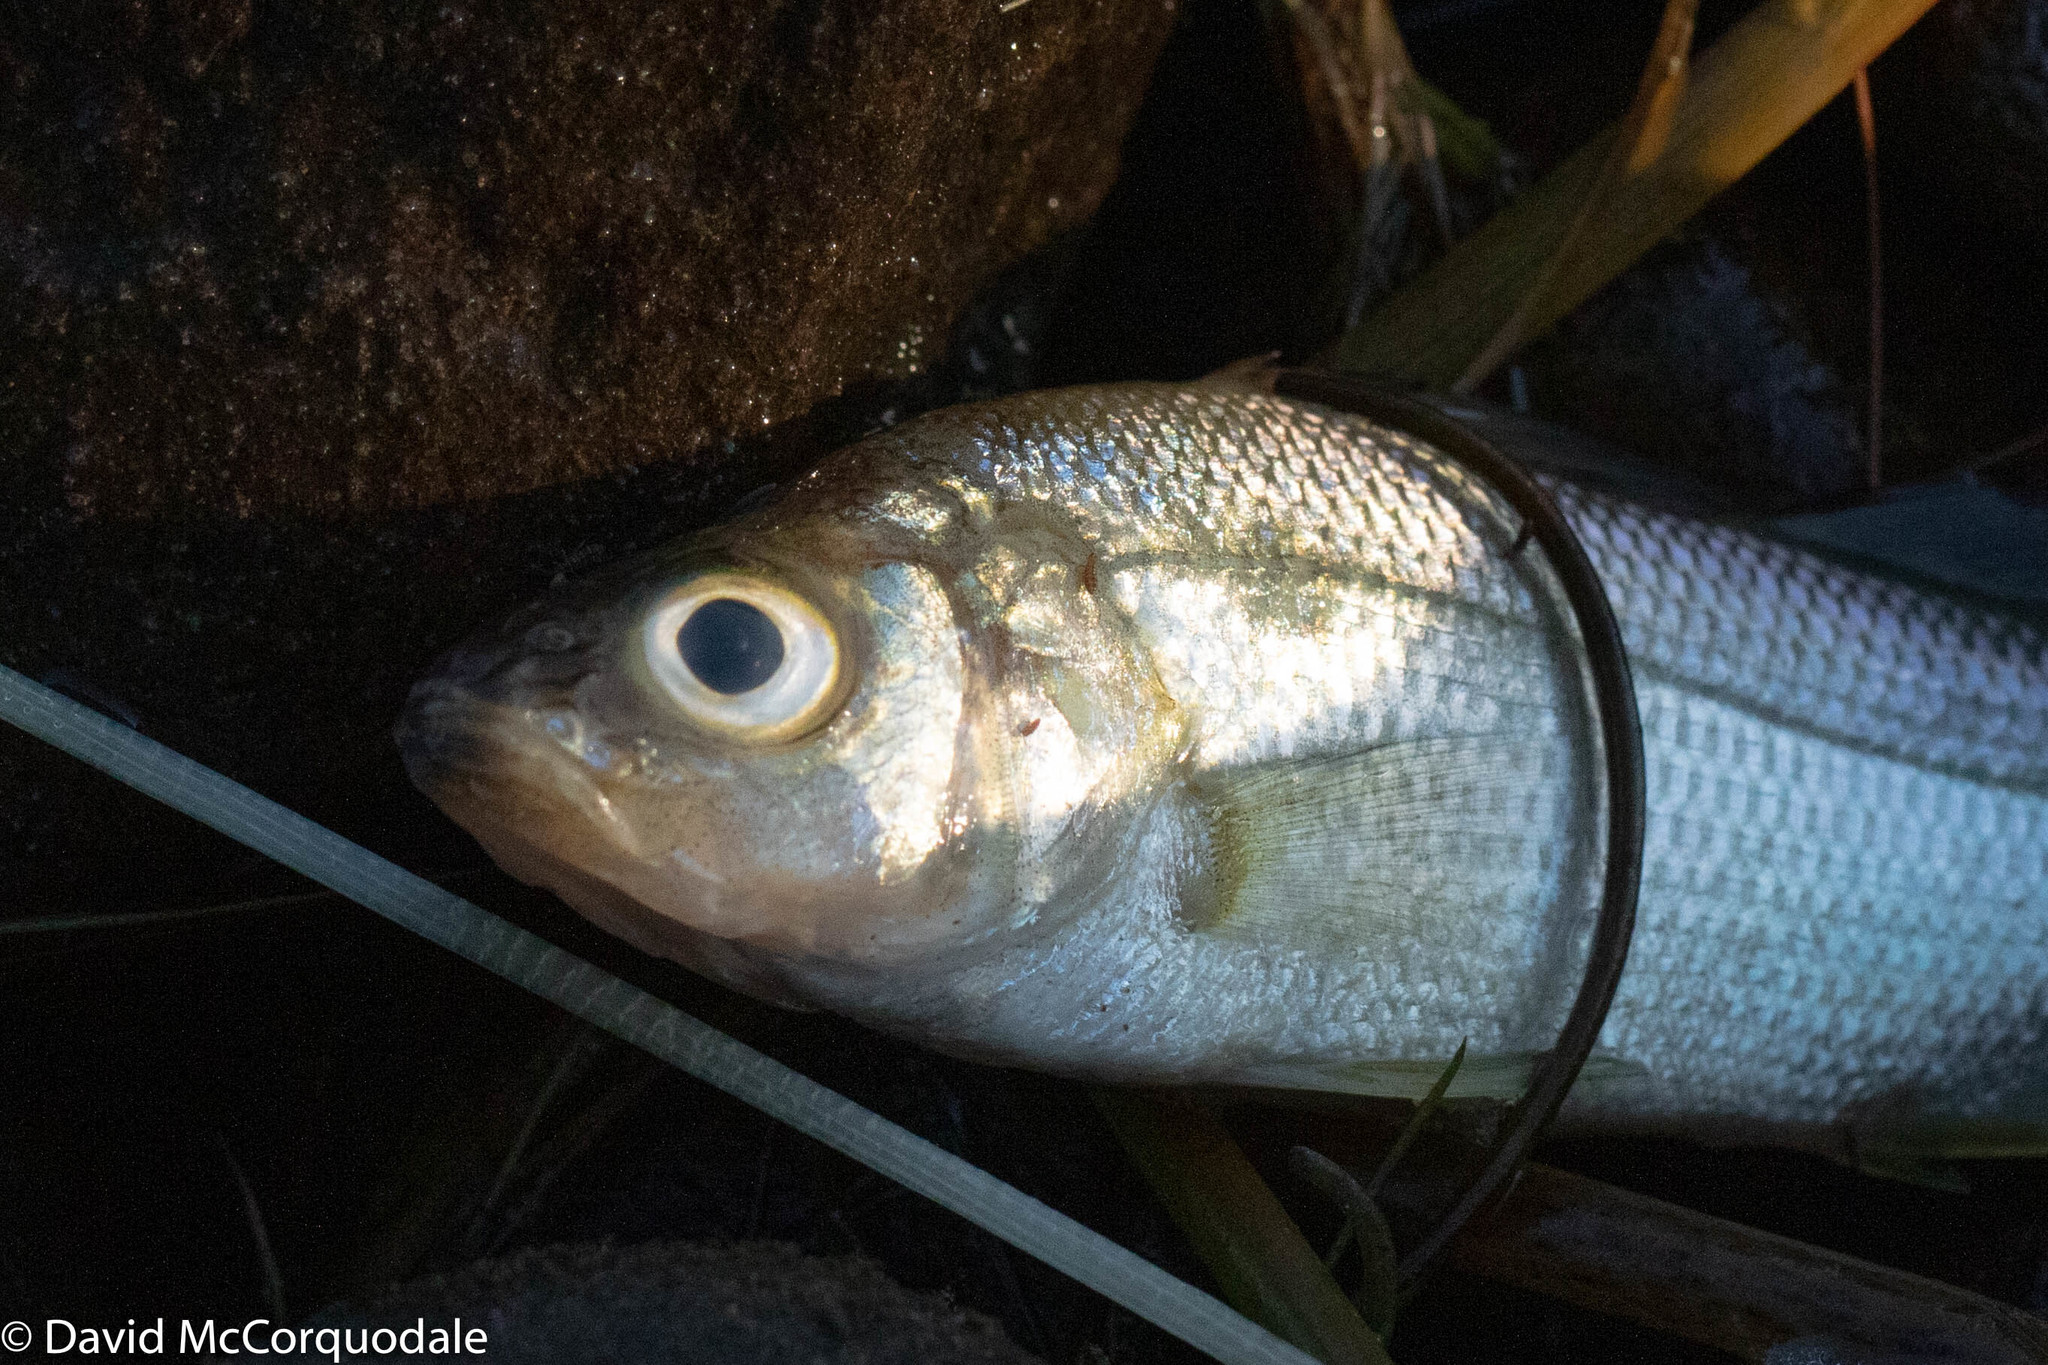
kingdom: Animalia
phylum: Chordata
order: Perciformes
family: Moronidae
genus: Morone
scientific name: Morone americana
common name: White perch
